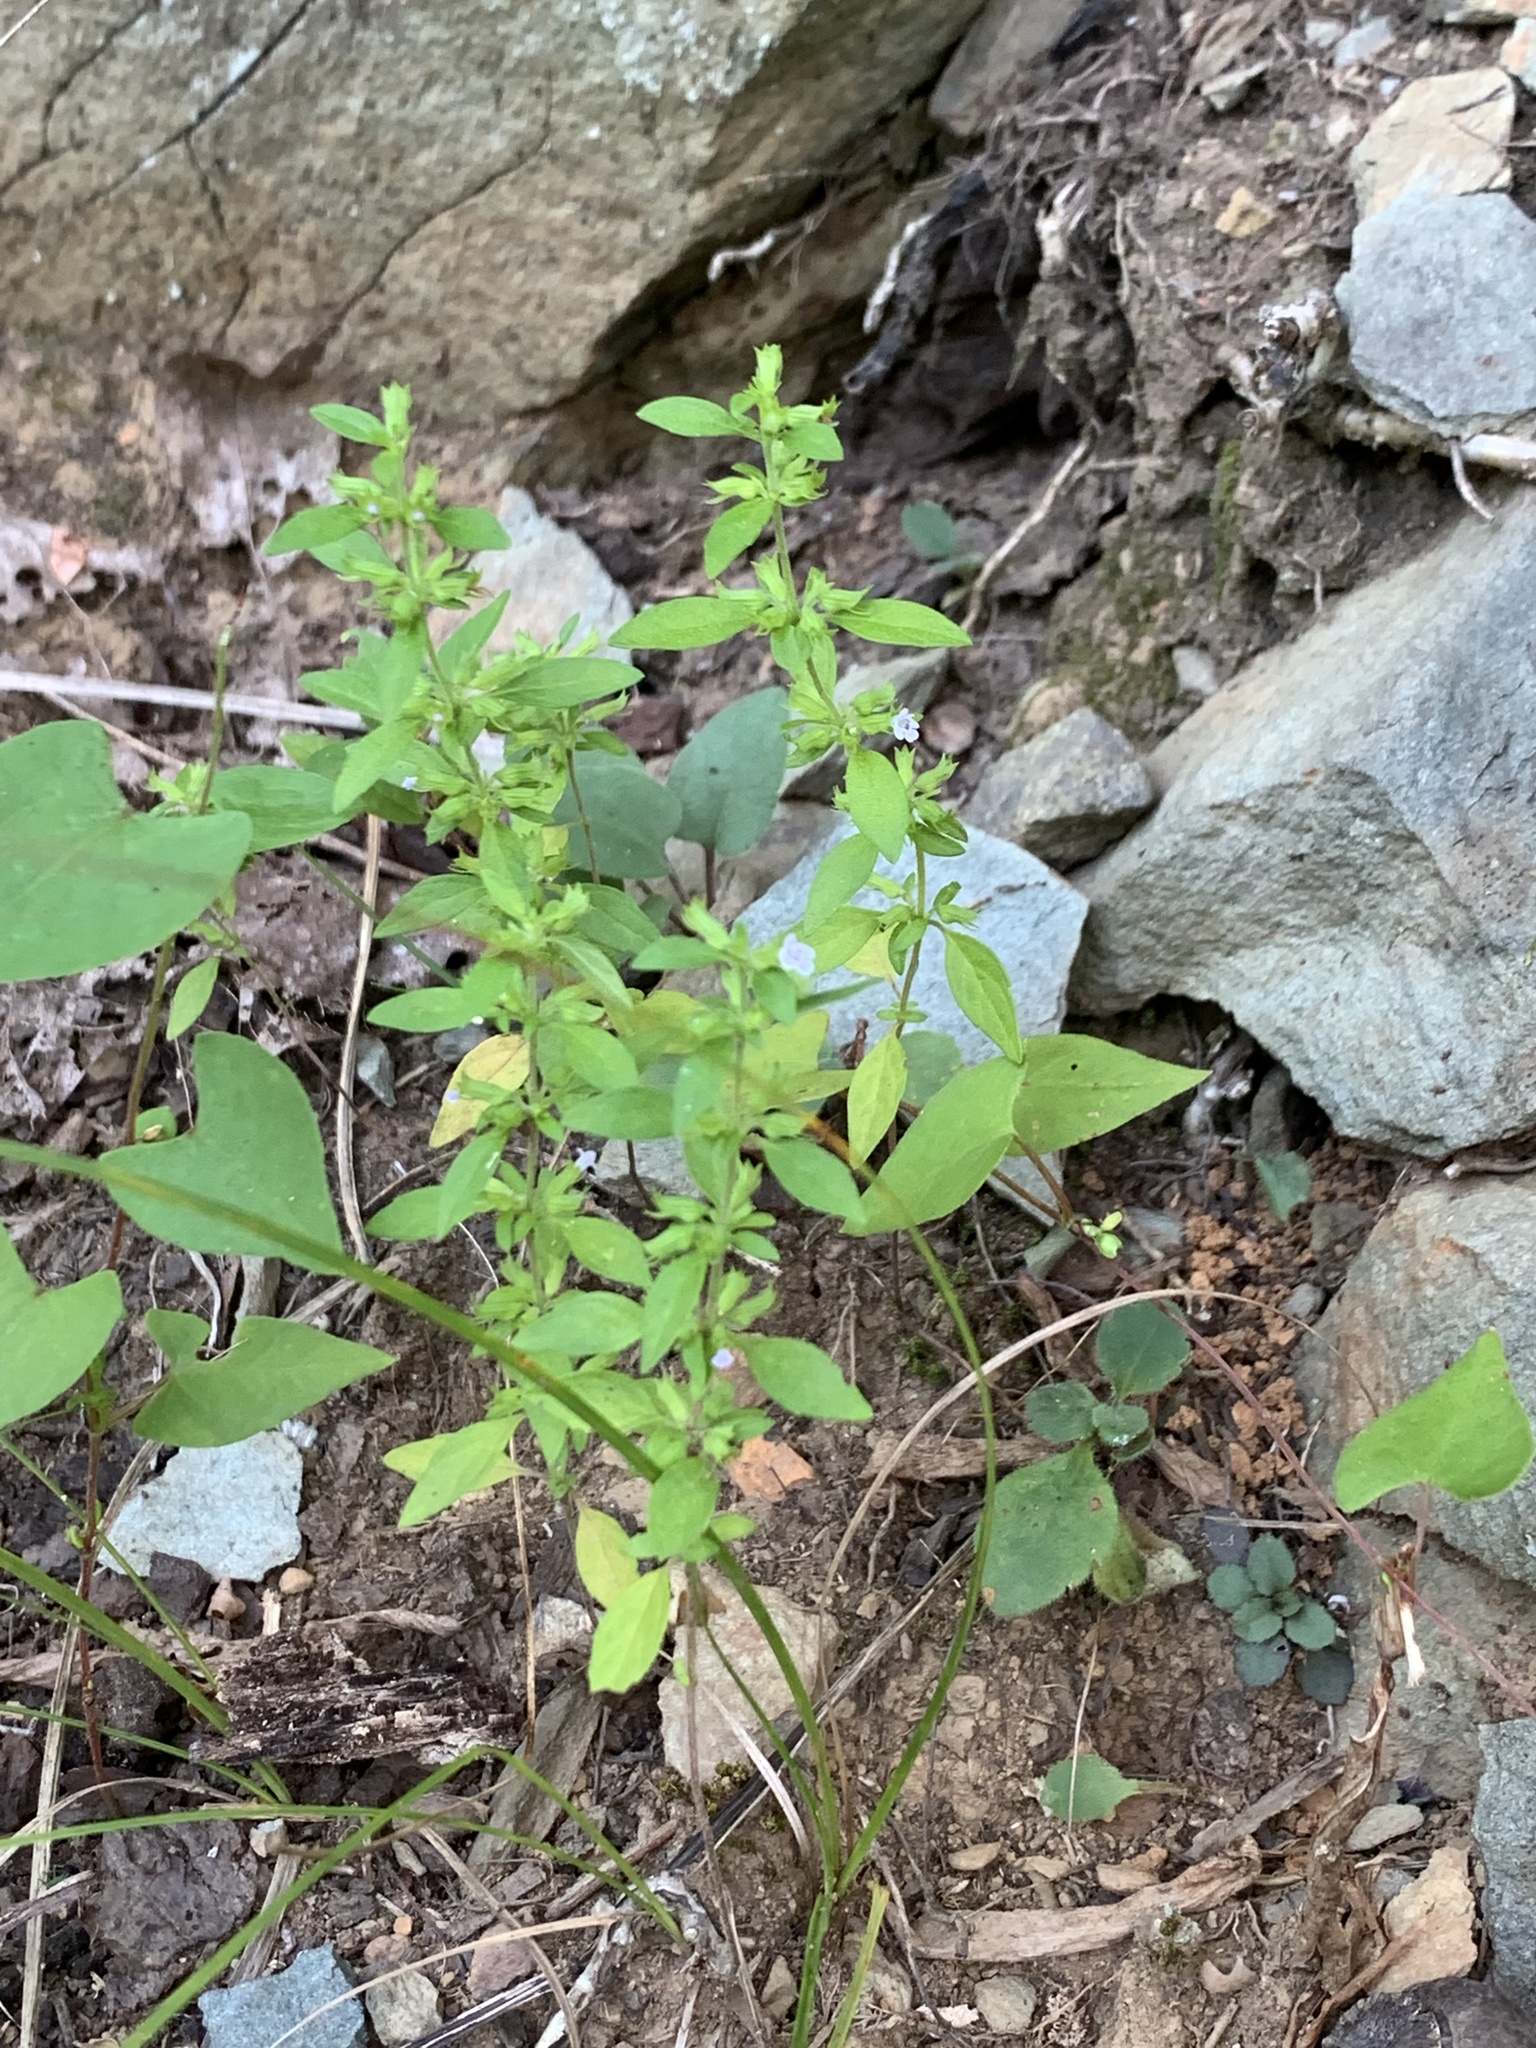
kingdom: Plantae
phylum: Tracheophyta
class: Magnoliopsida
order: Lamiales
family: Lamiaceae
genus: Hedeoma
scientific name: Hedeoma pulegioides
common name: American false pennyroyal
